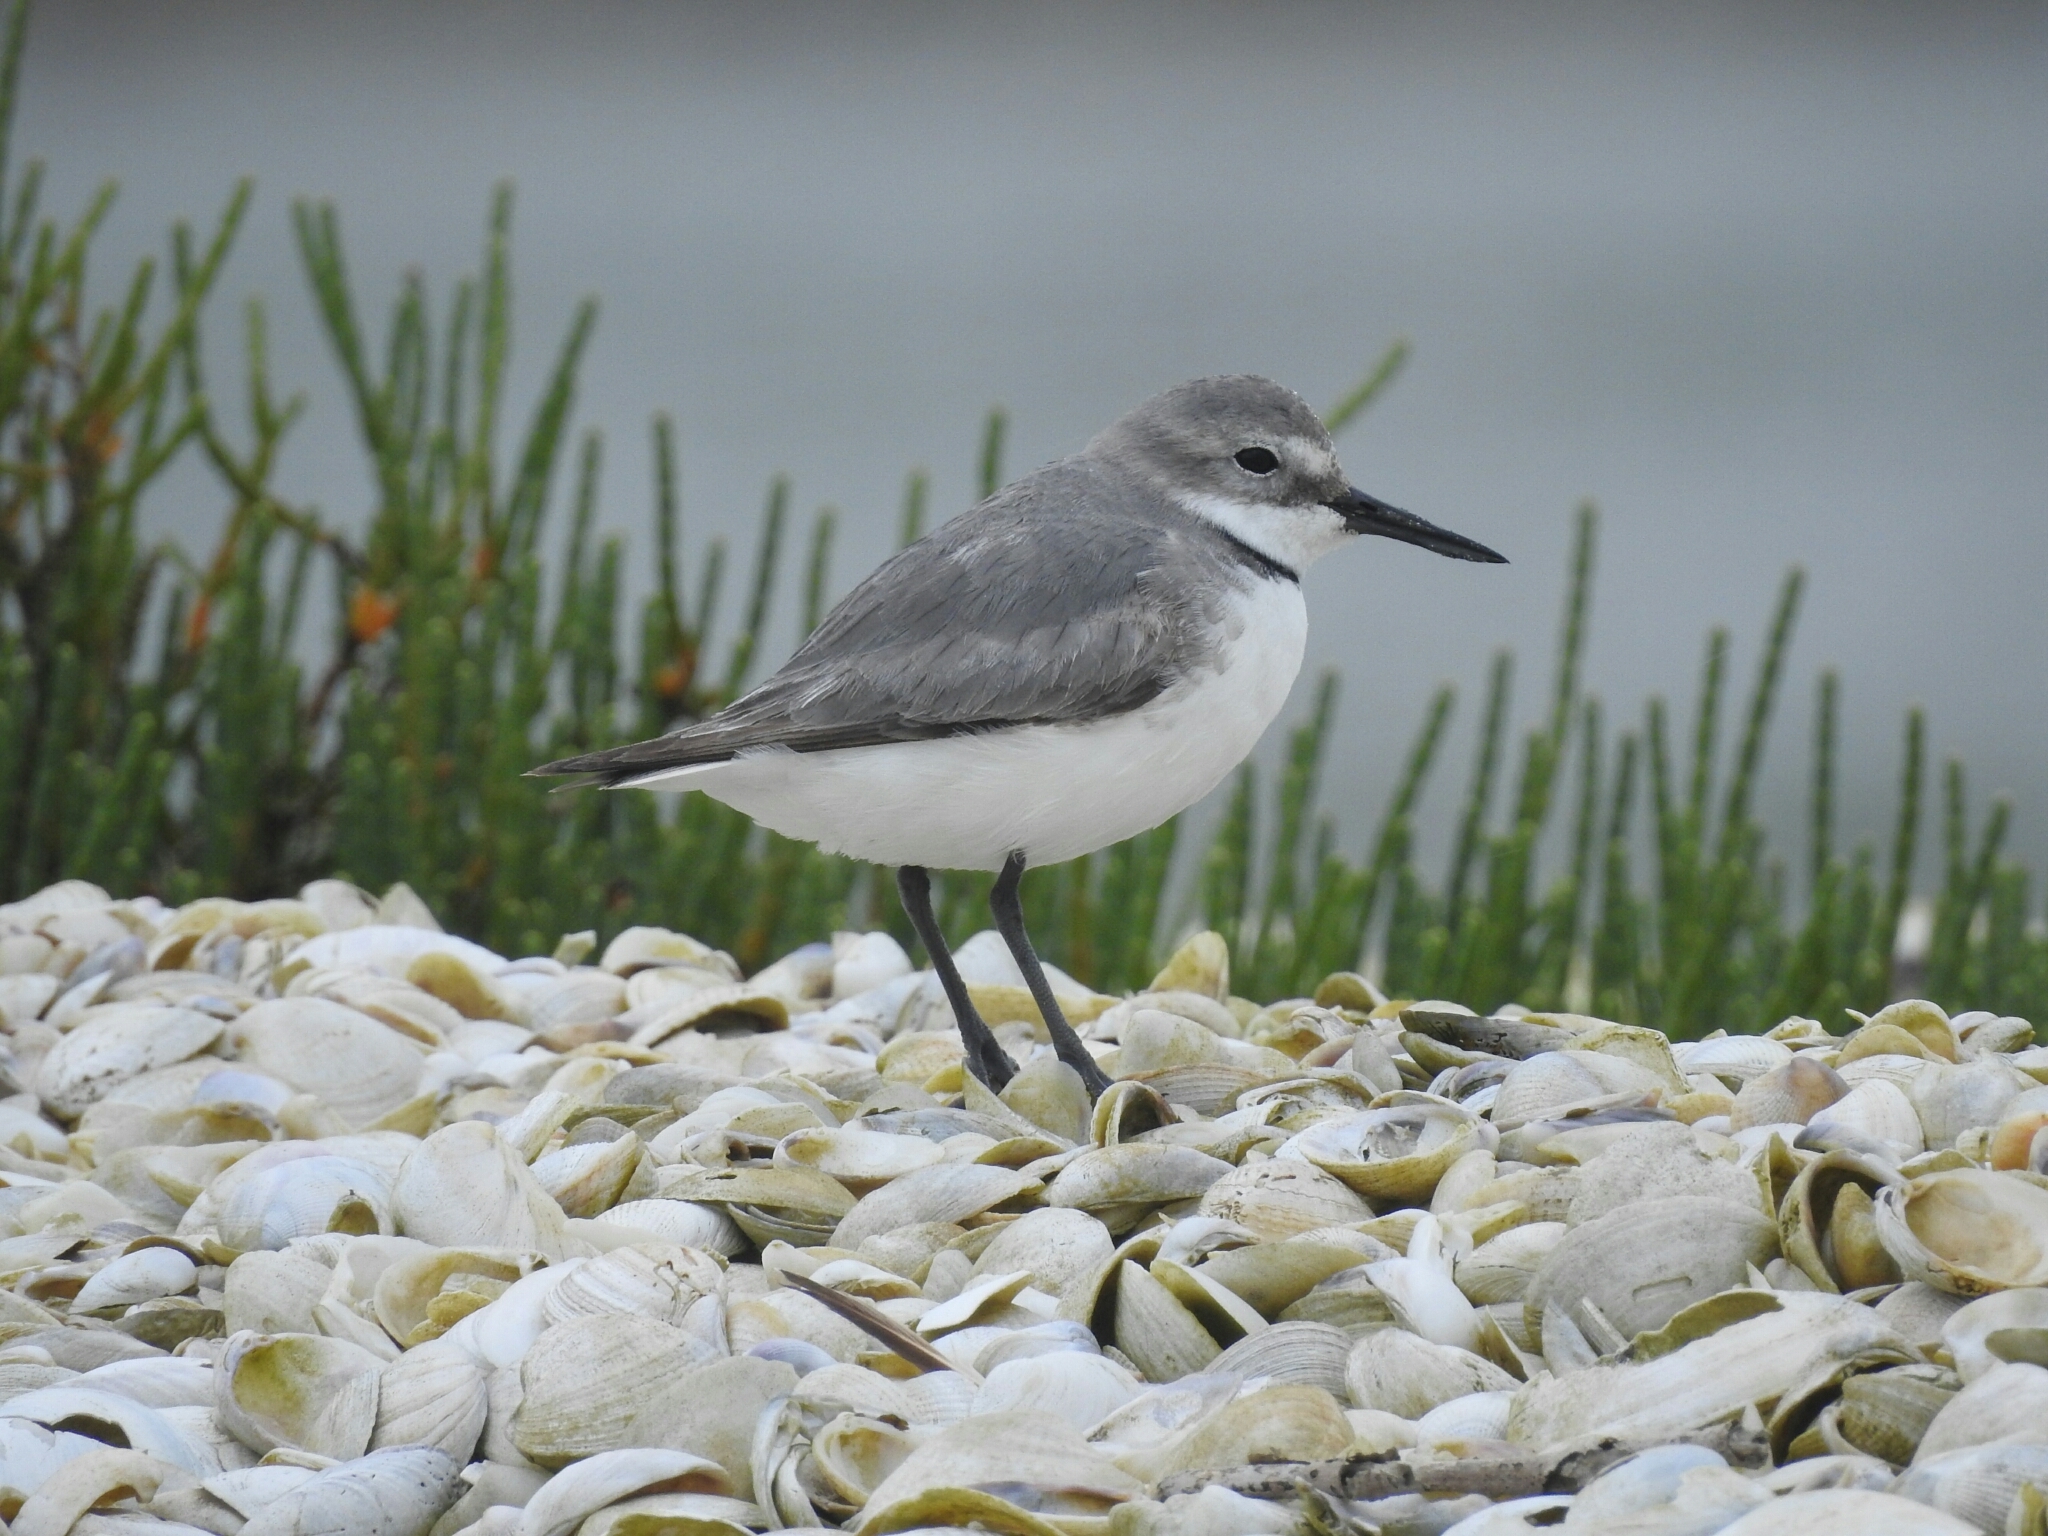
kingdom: Animalia
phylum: Chordata
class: Aves
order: Charadriiformes
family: Charadriidae
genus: Anarhynchus
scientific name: Anarhynchus frontalis
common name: Wrybill
